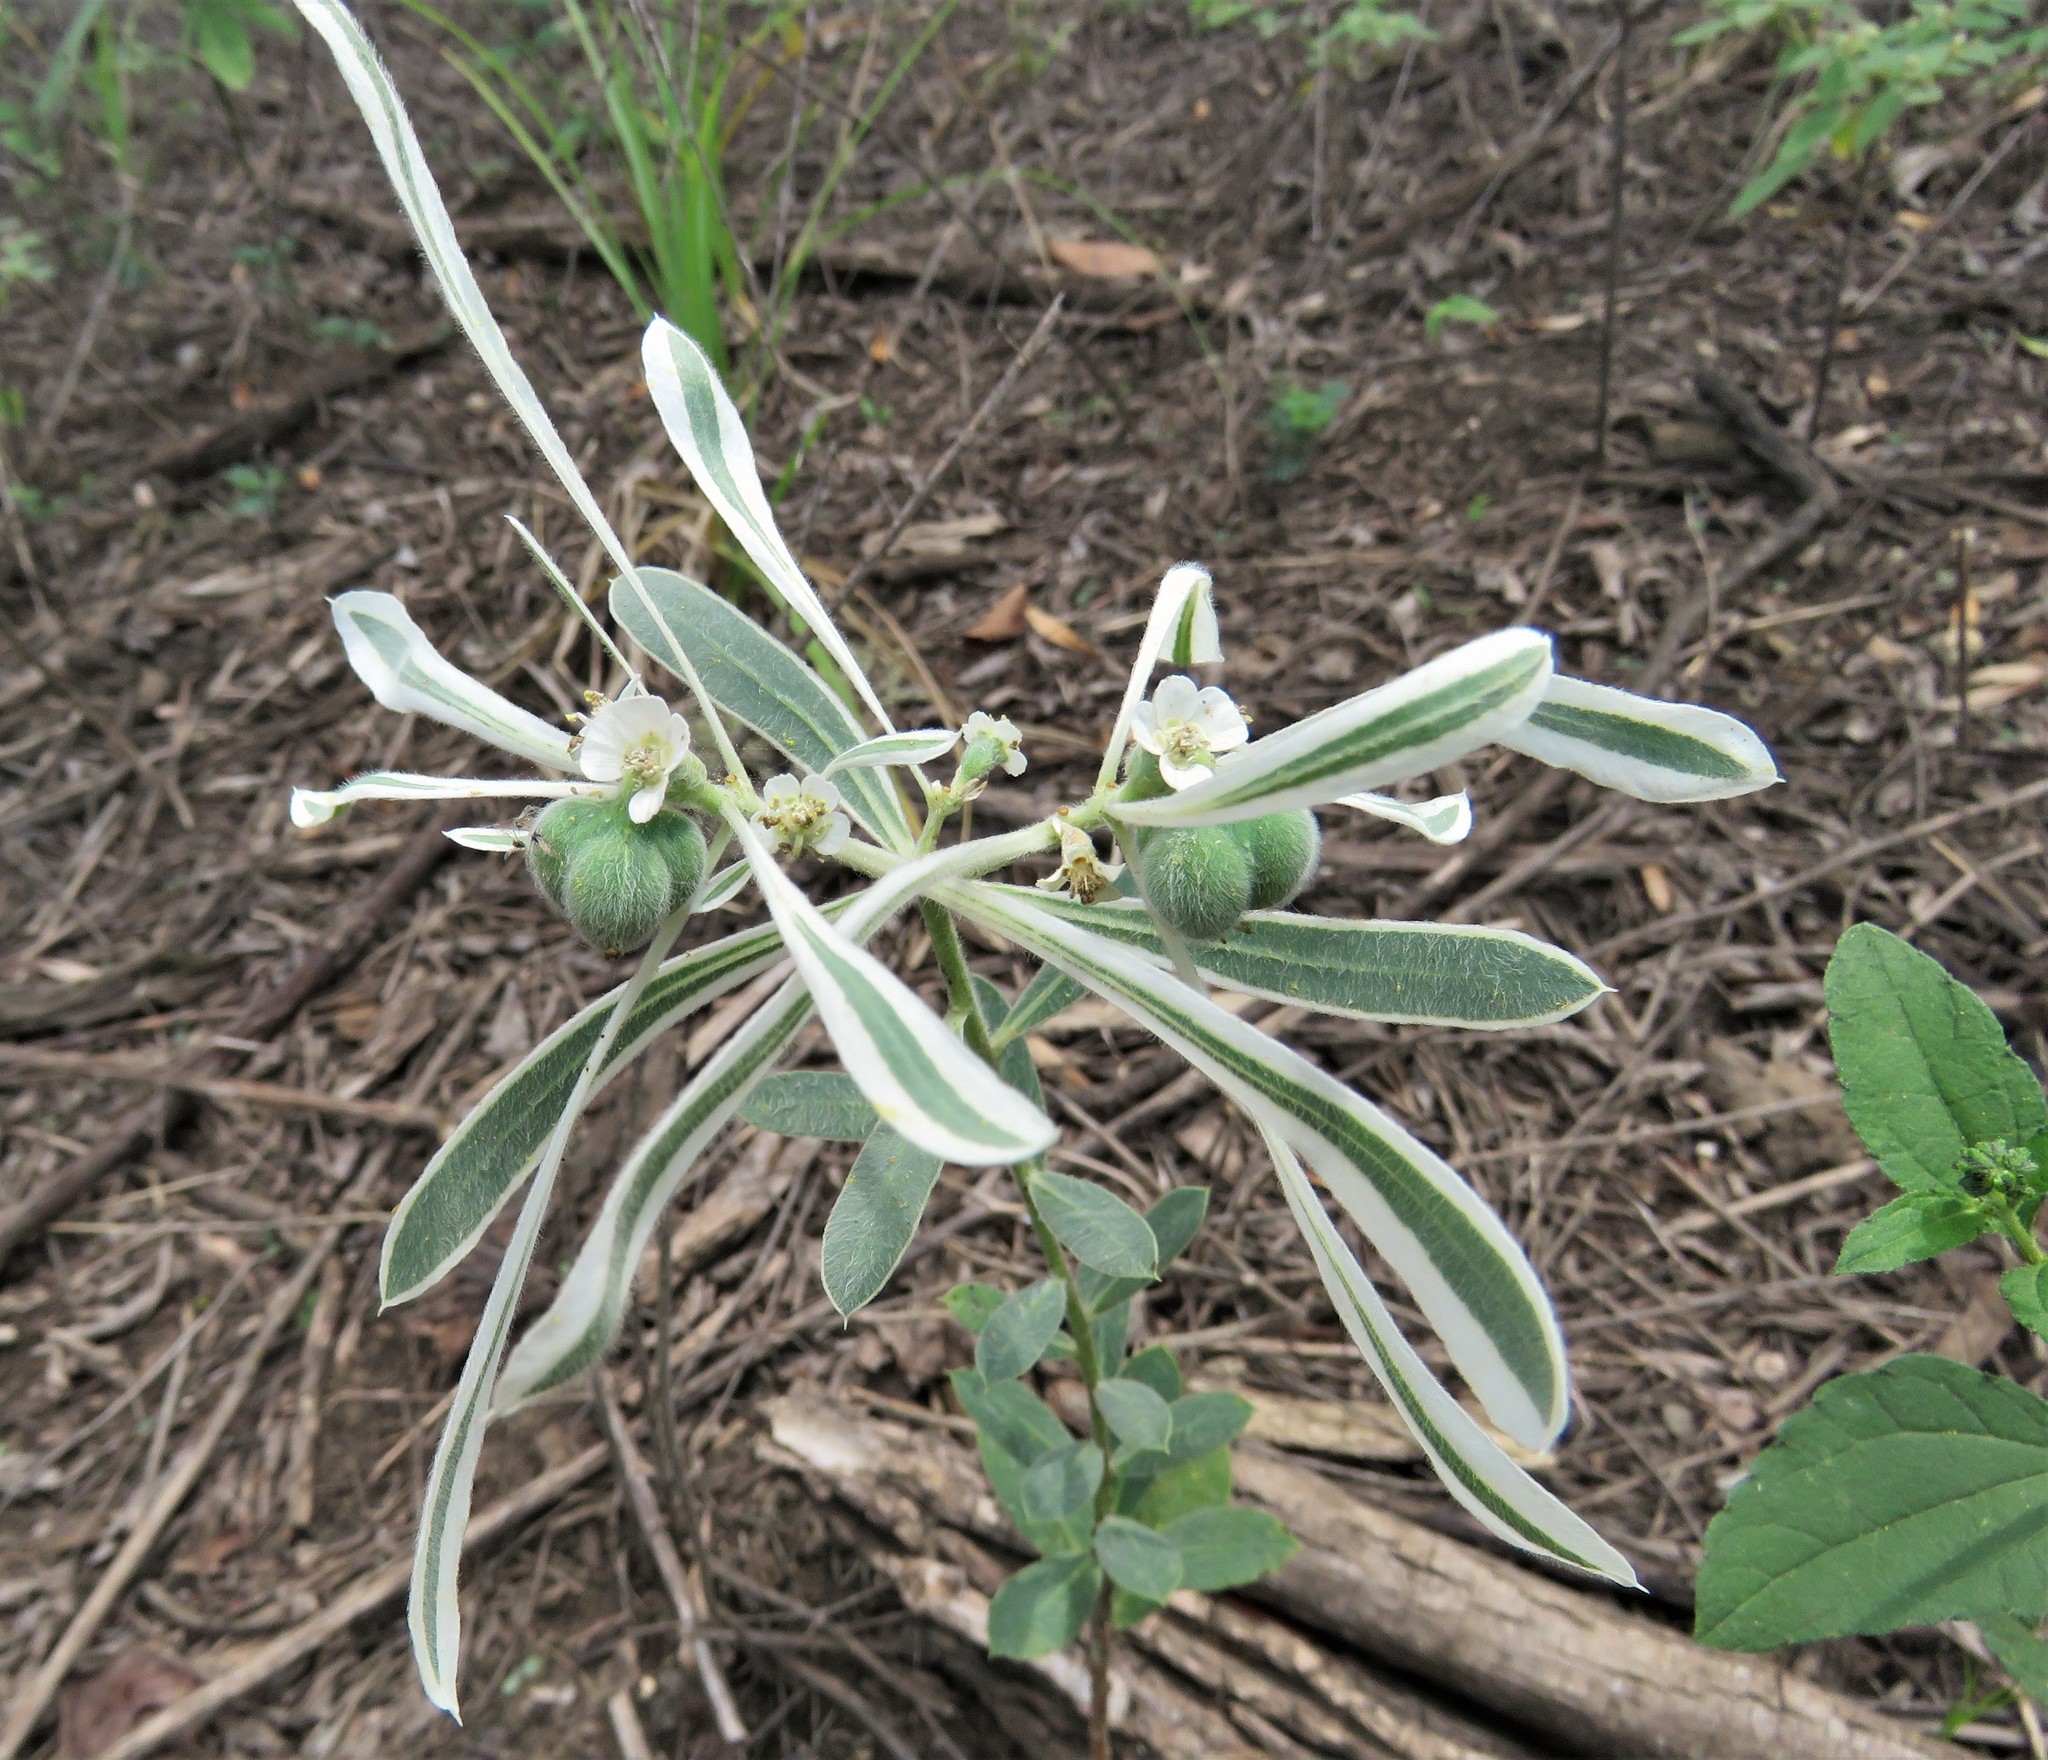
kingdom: Plantae
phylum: Tracheophyta
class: Magnoliopsida
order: Malpighiales
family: Euphorbiaceae
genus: Euphorbia
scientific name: Euphorbia bicolor
